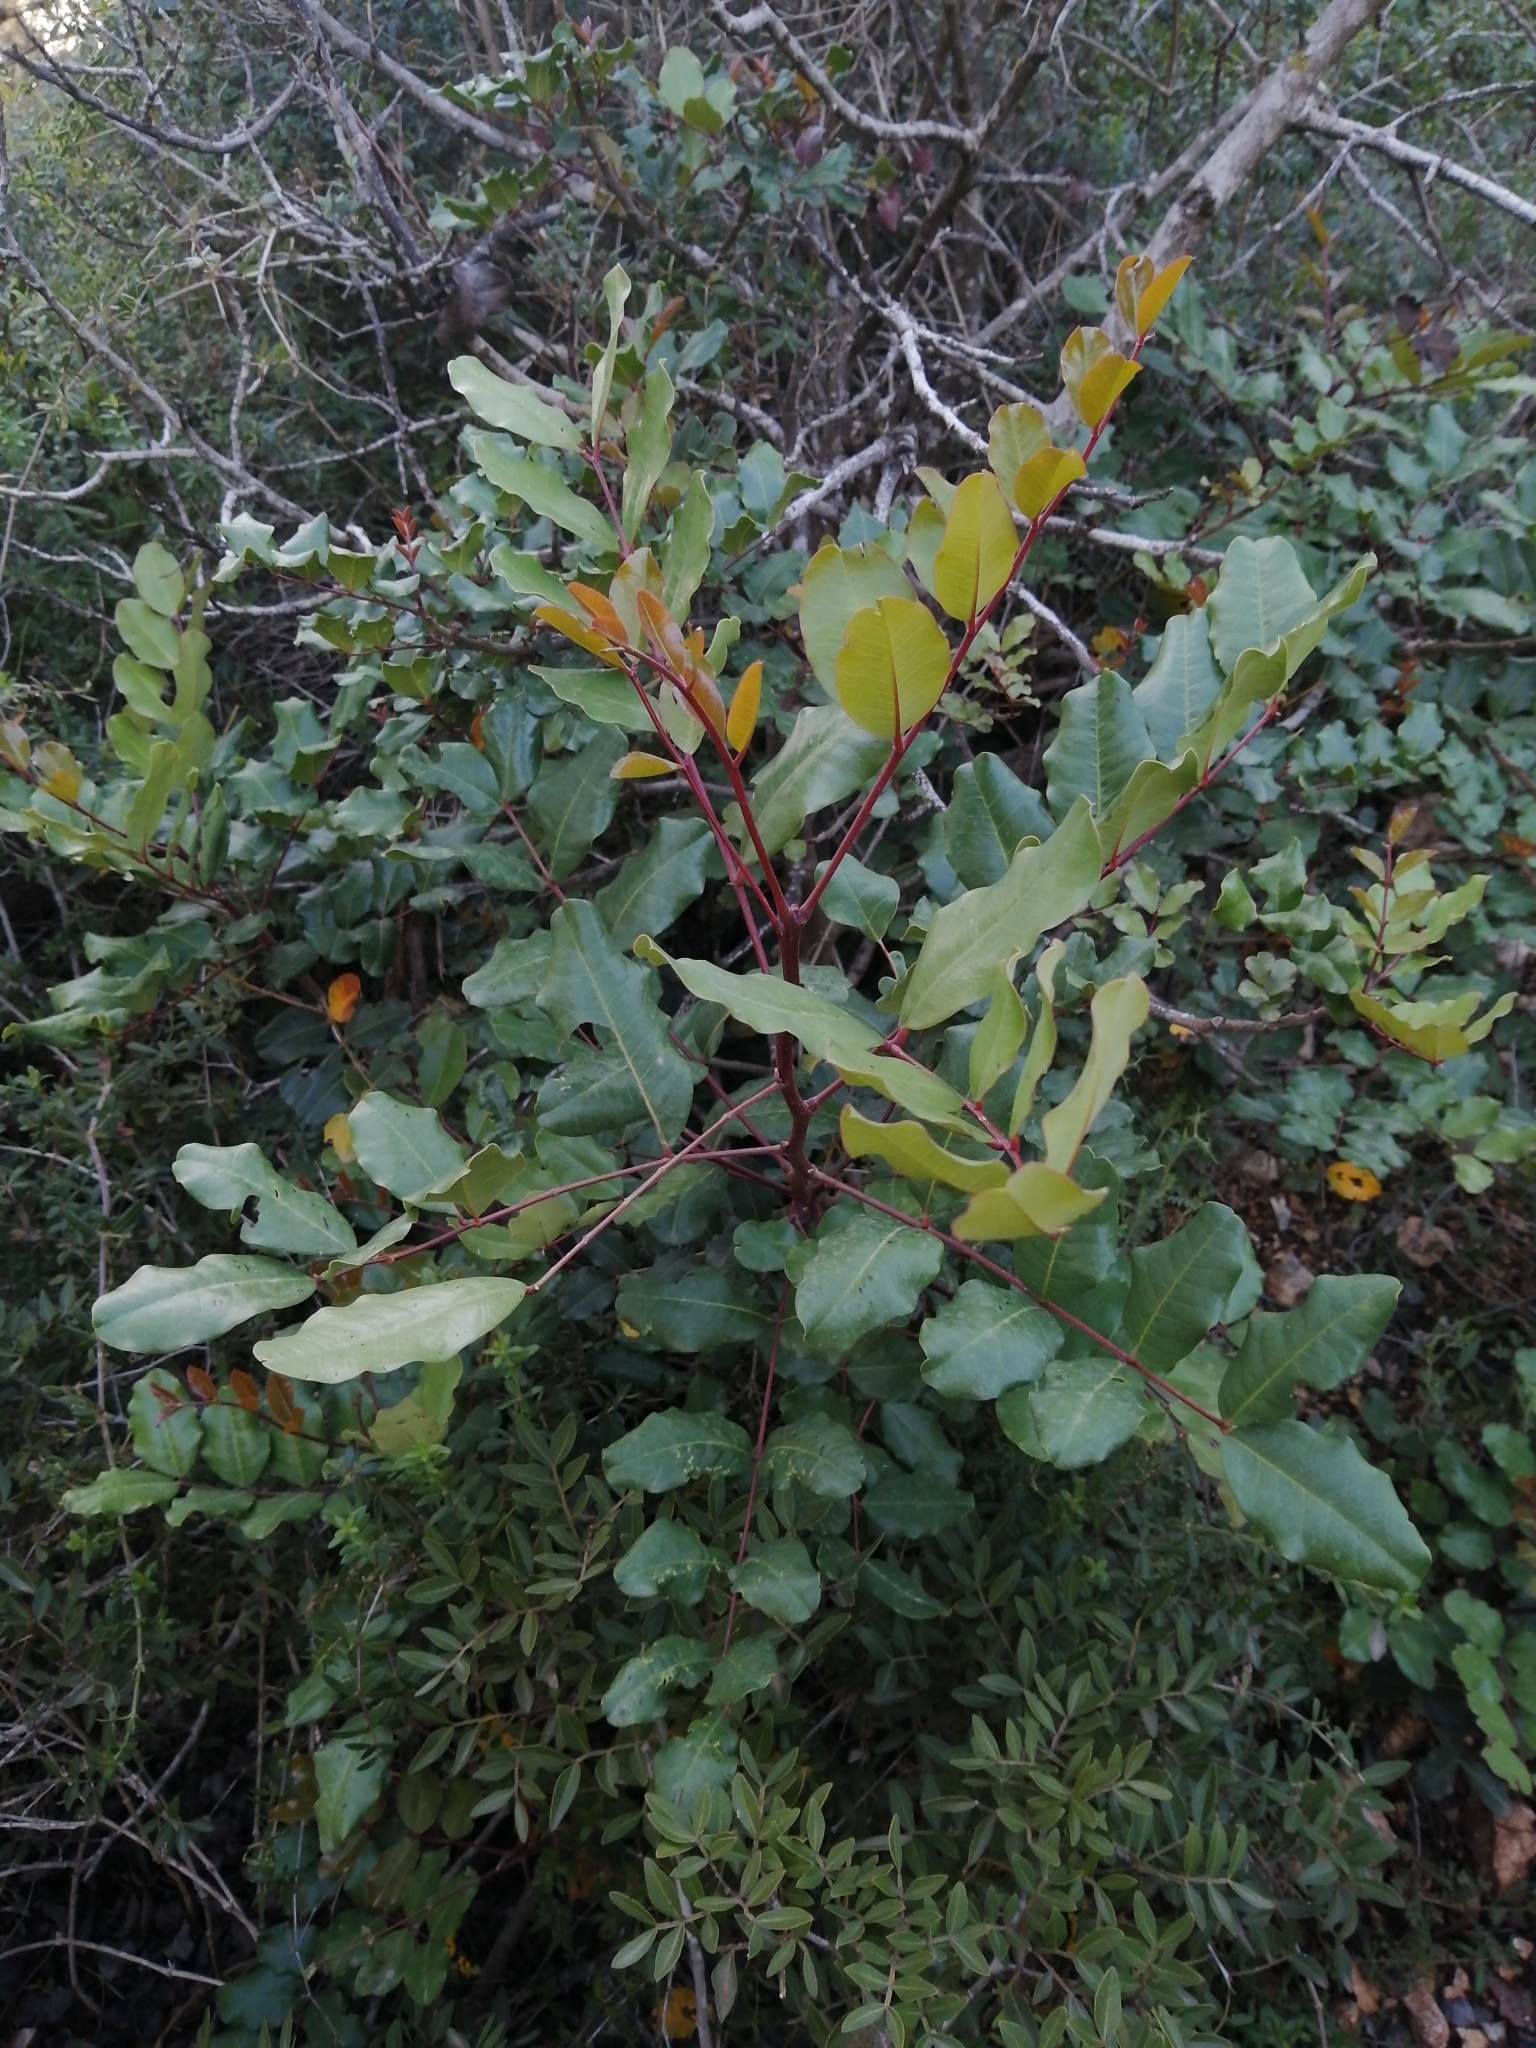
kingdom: Plantae
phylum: Tracheophyta
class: Magnoliopsida
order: Fabales
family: Fabaceae
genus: Ceratonia
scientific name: Ceratonia siliqua
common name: Carob
